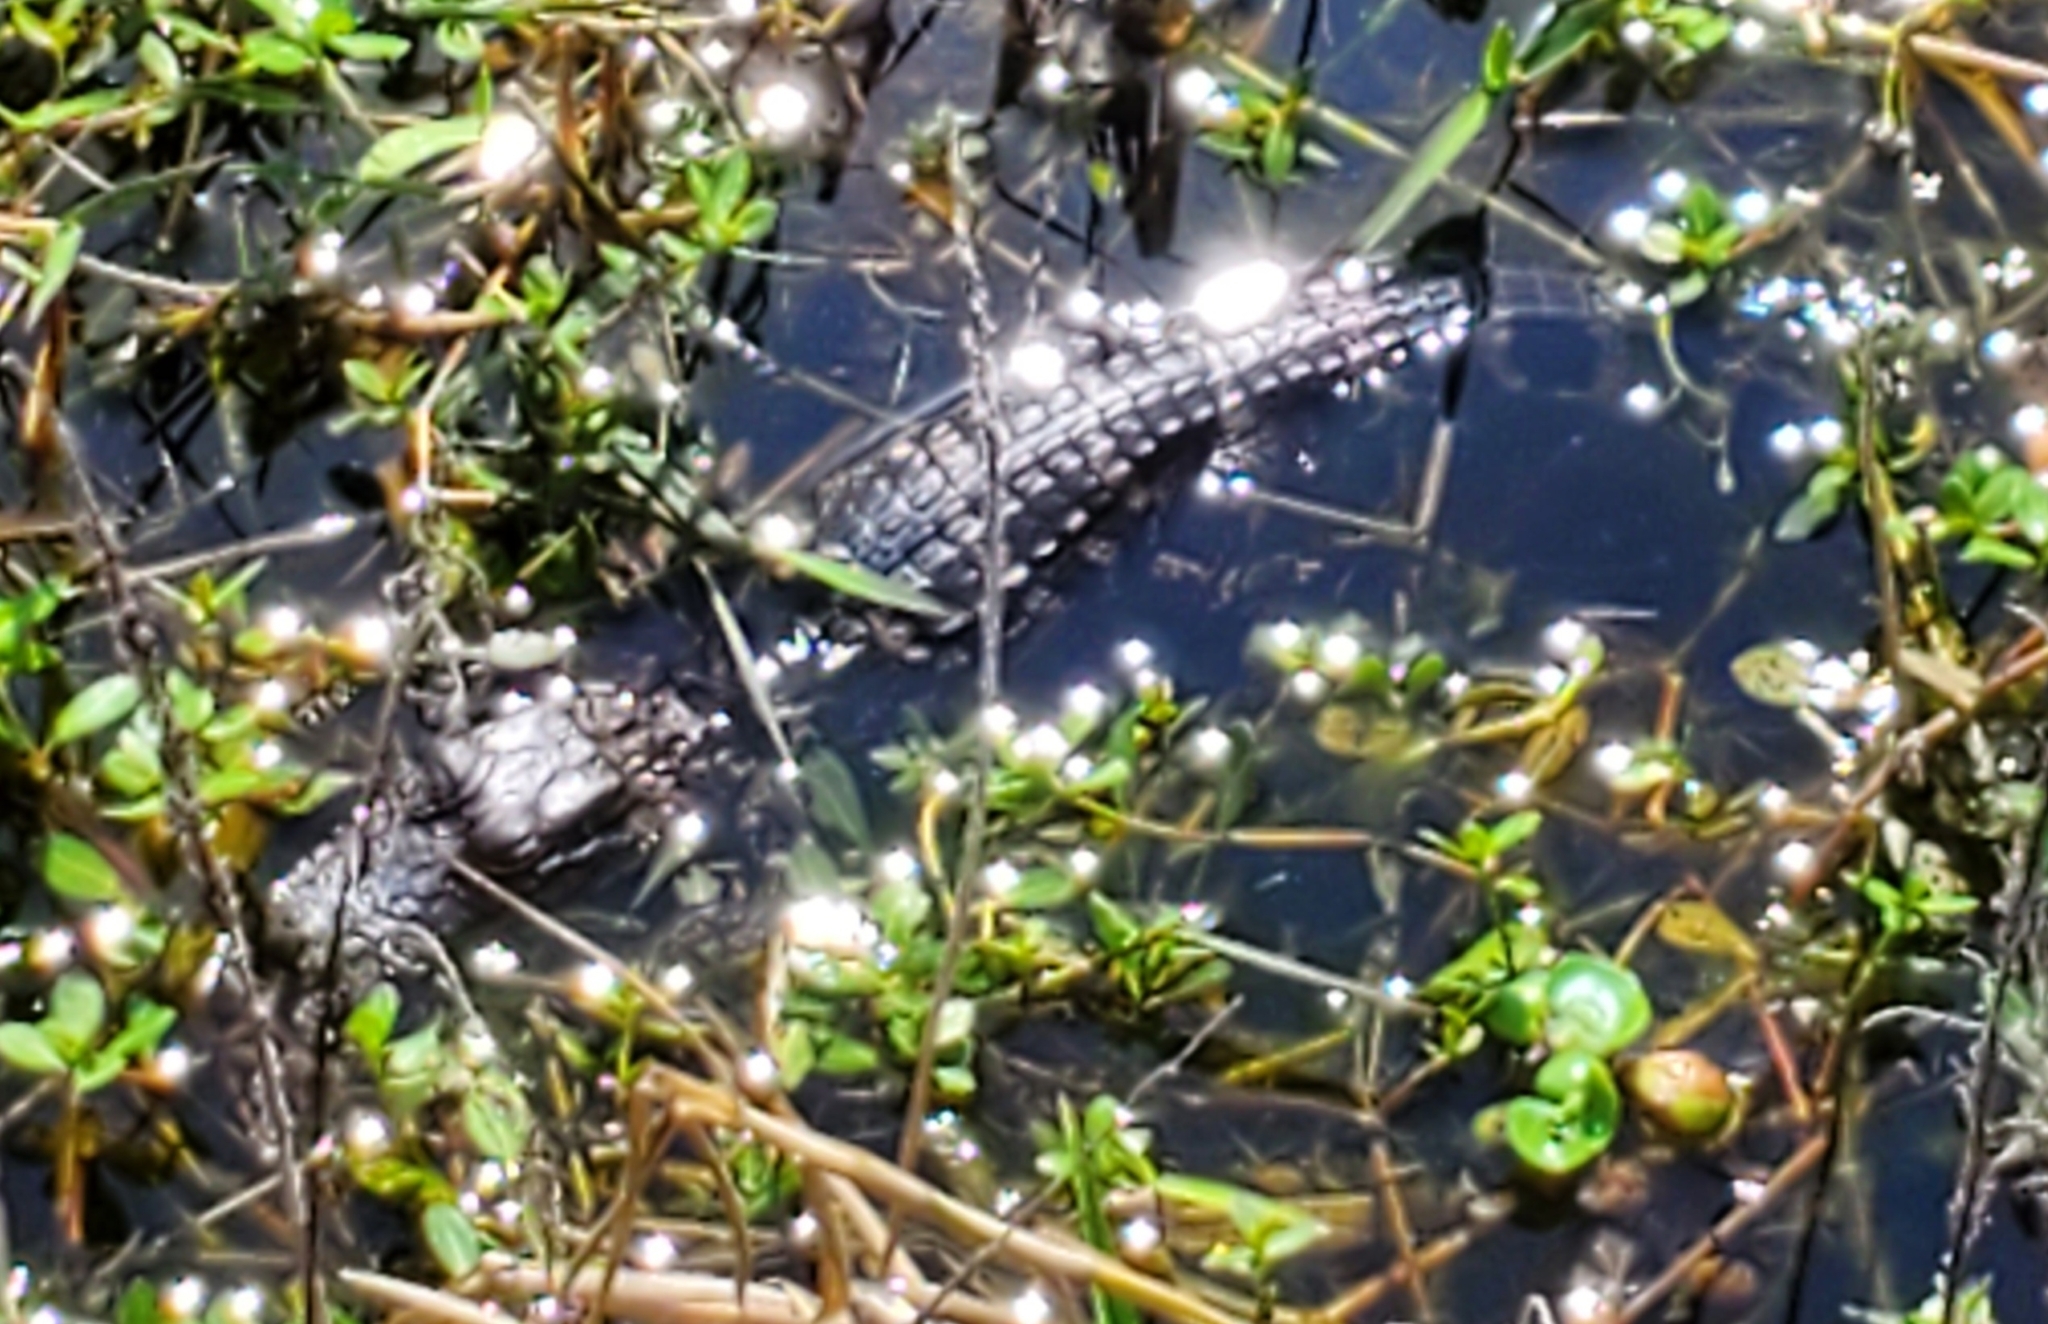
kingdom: Animalia
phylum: Chordata
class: Crocodylia
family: Alligatoridae
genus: Alligator
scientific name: Alligator mississippiensis
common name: American alligator
